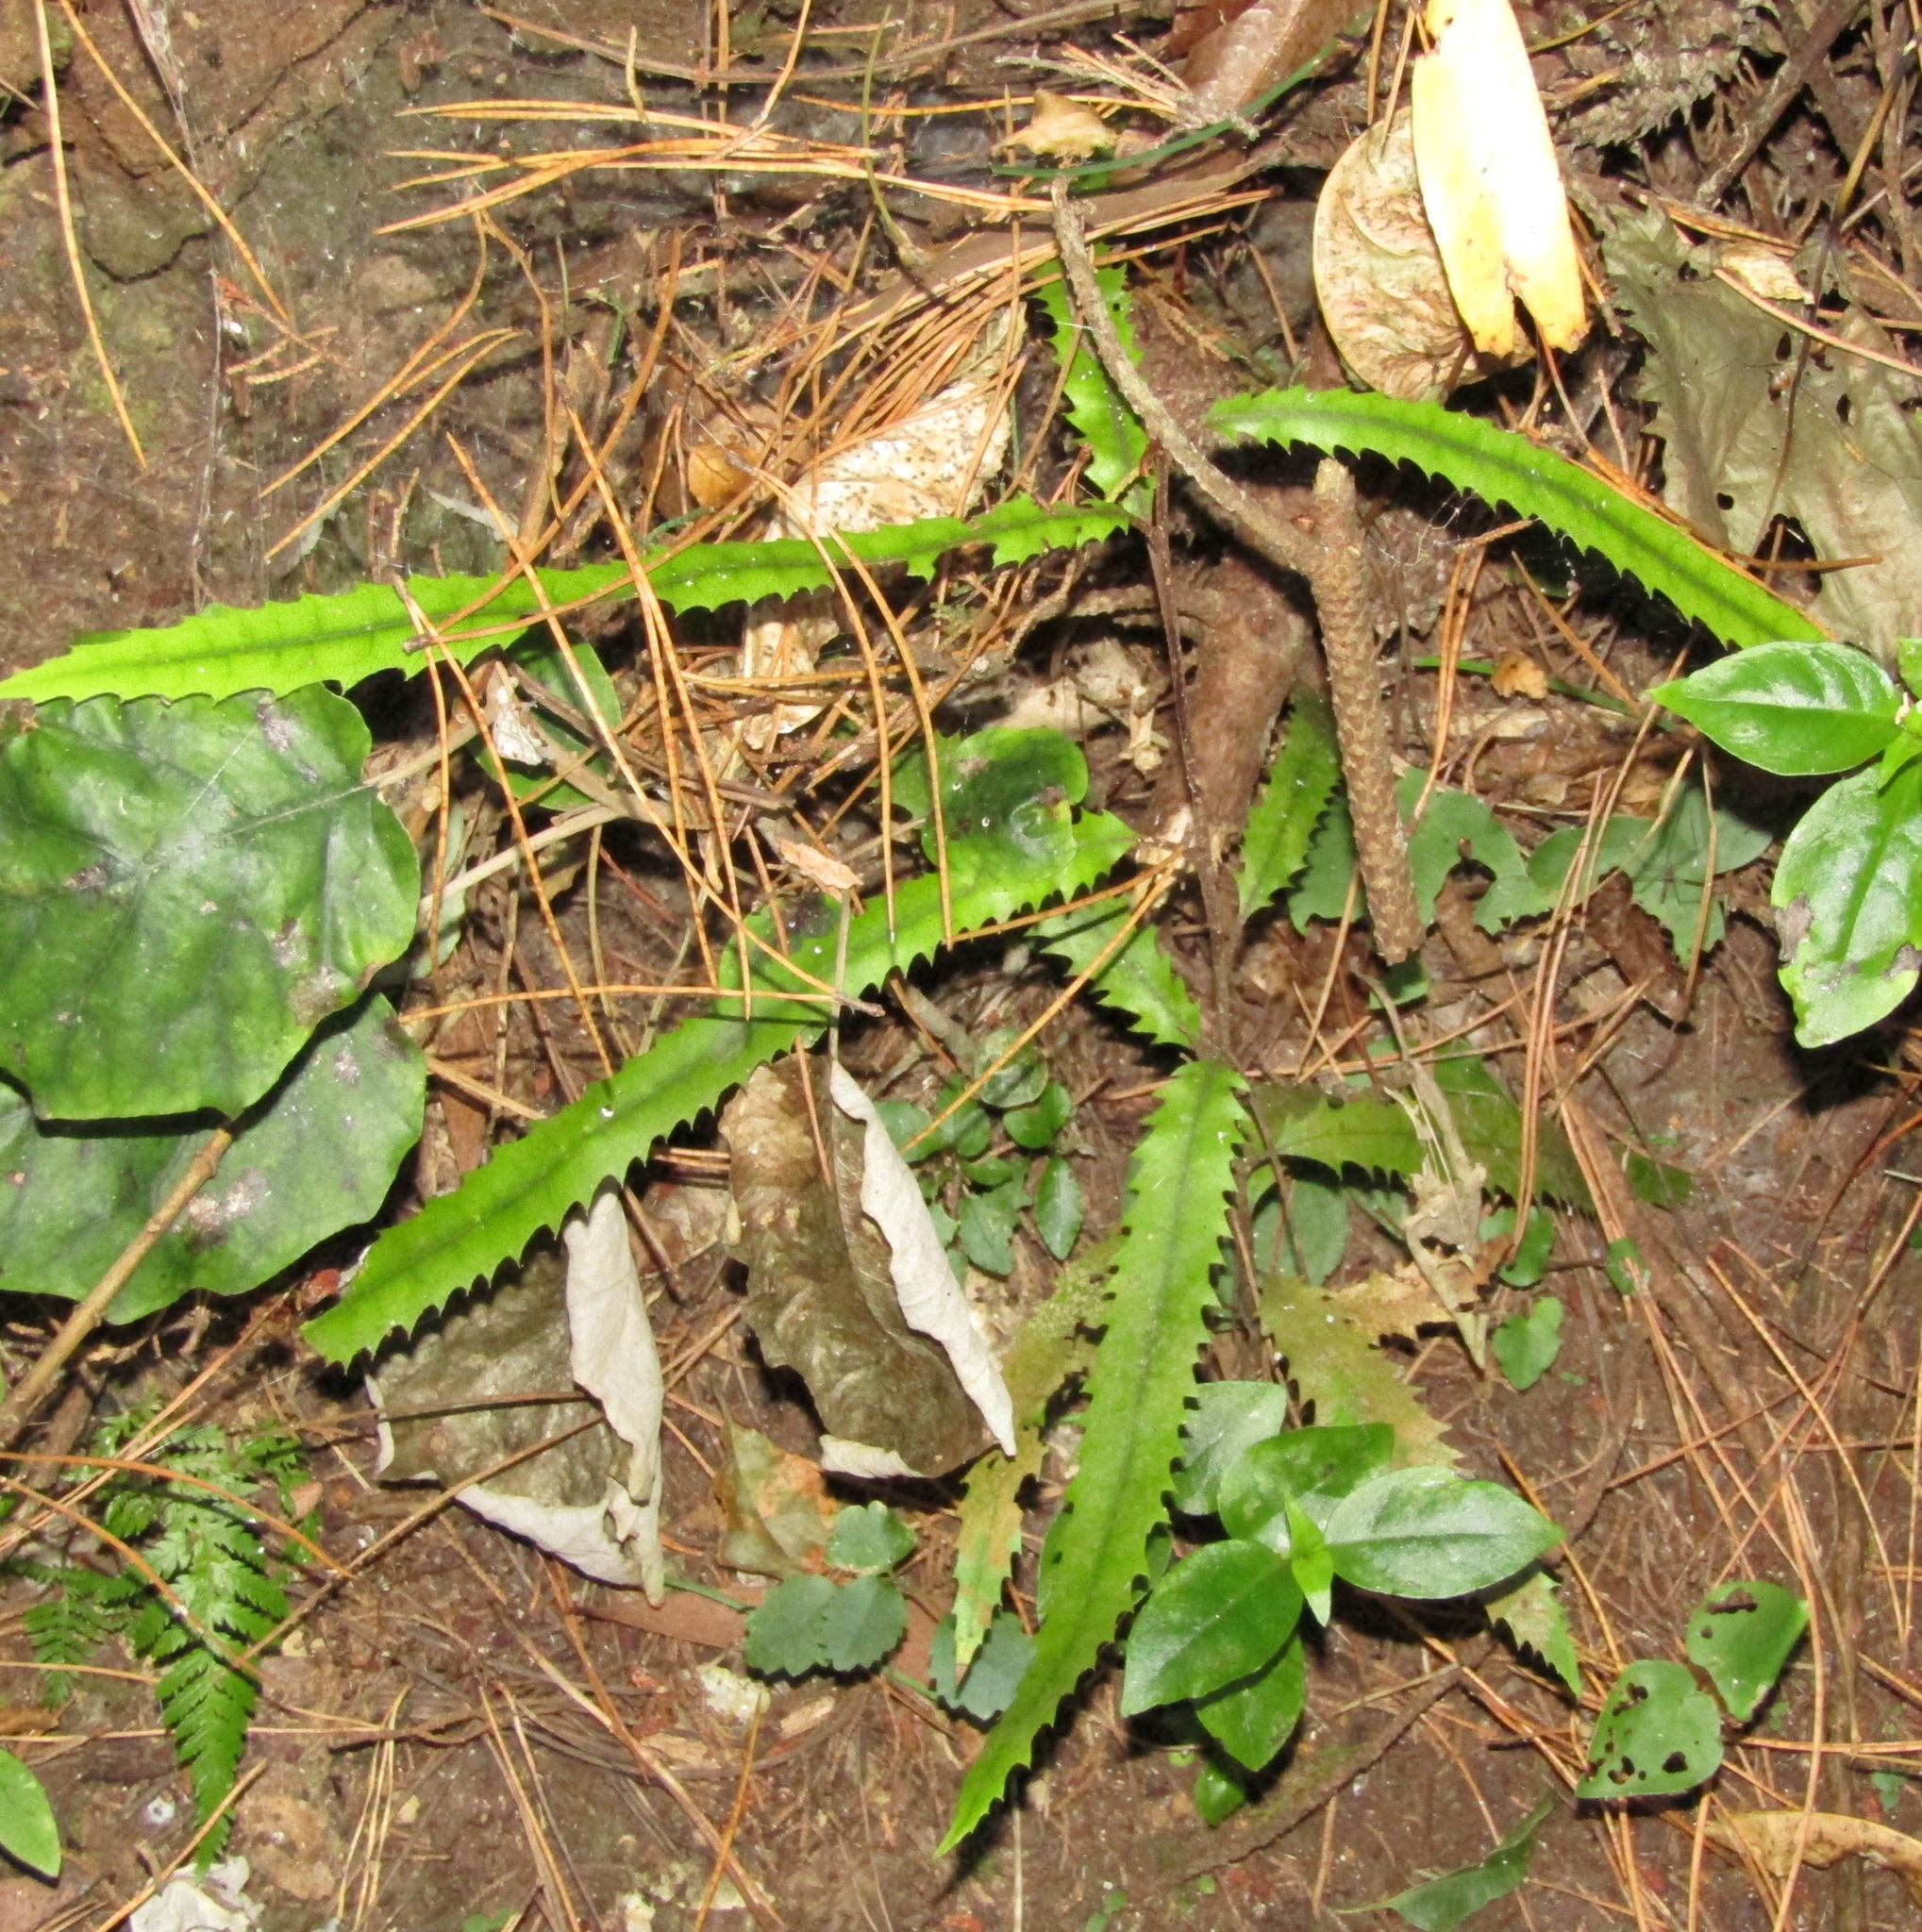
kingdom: Plantae
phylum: Tracheophyta
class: Magnoliopsida
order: Proteales
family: Proteaceae
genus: Knightia
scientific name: Knightia excelsa
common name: New zealand-honeysuckle
